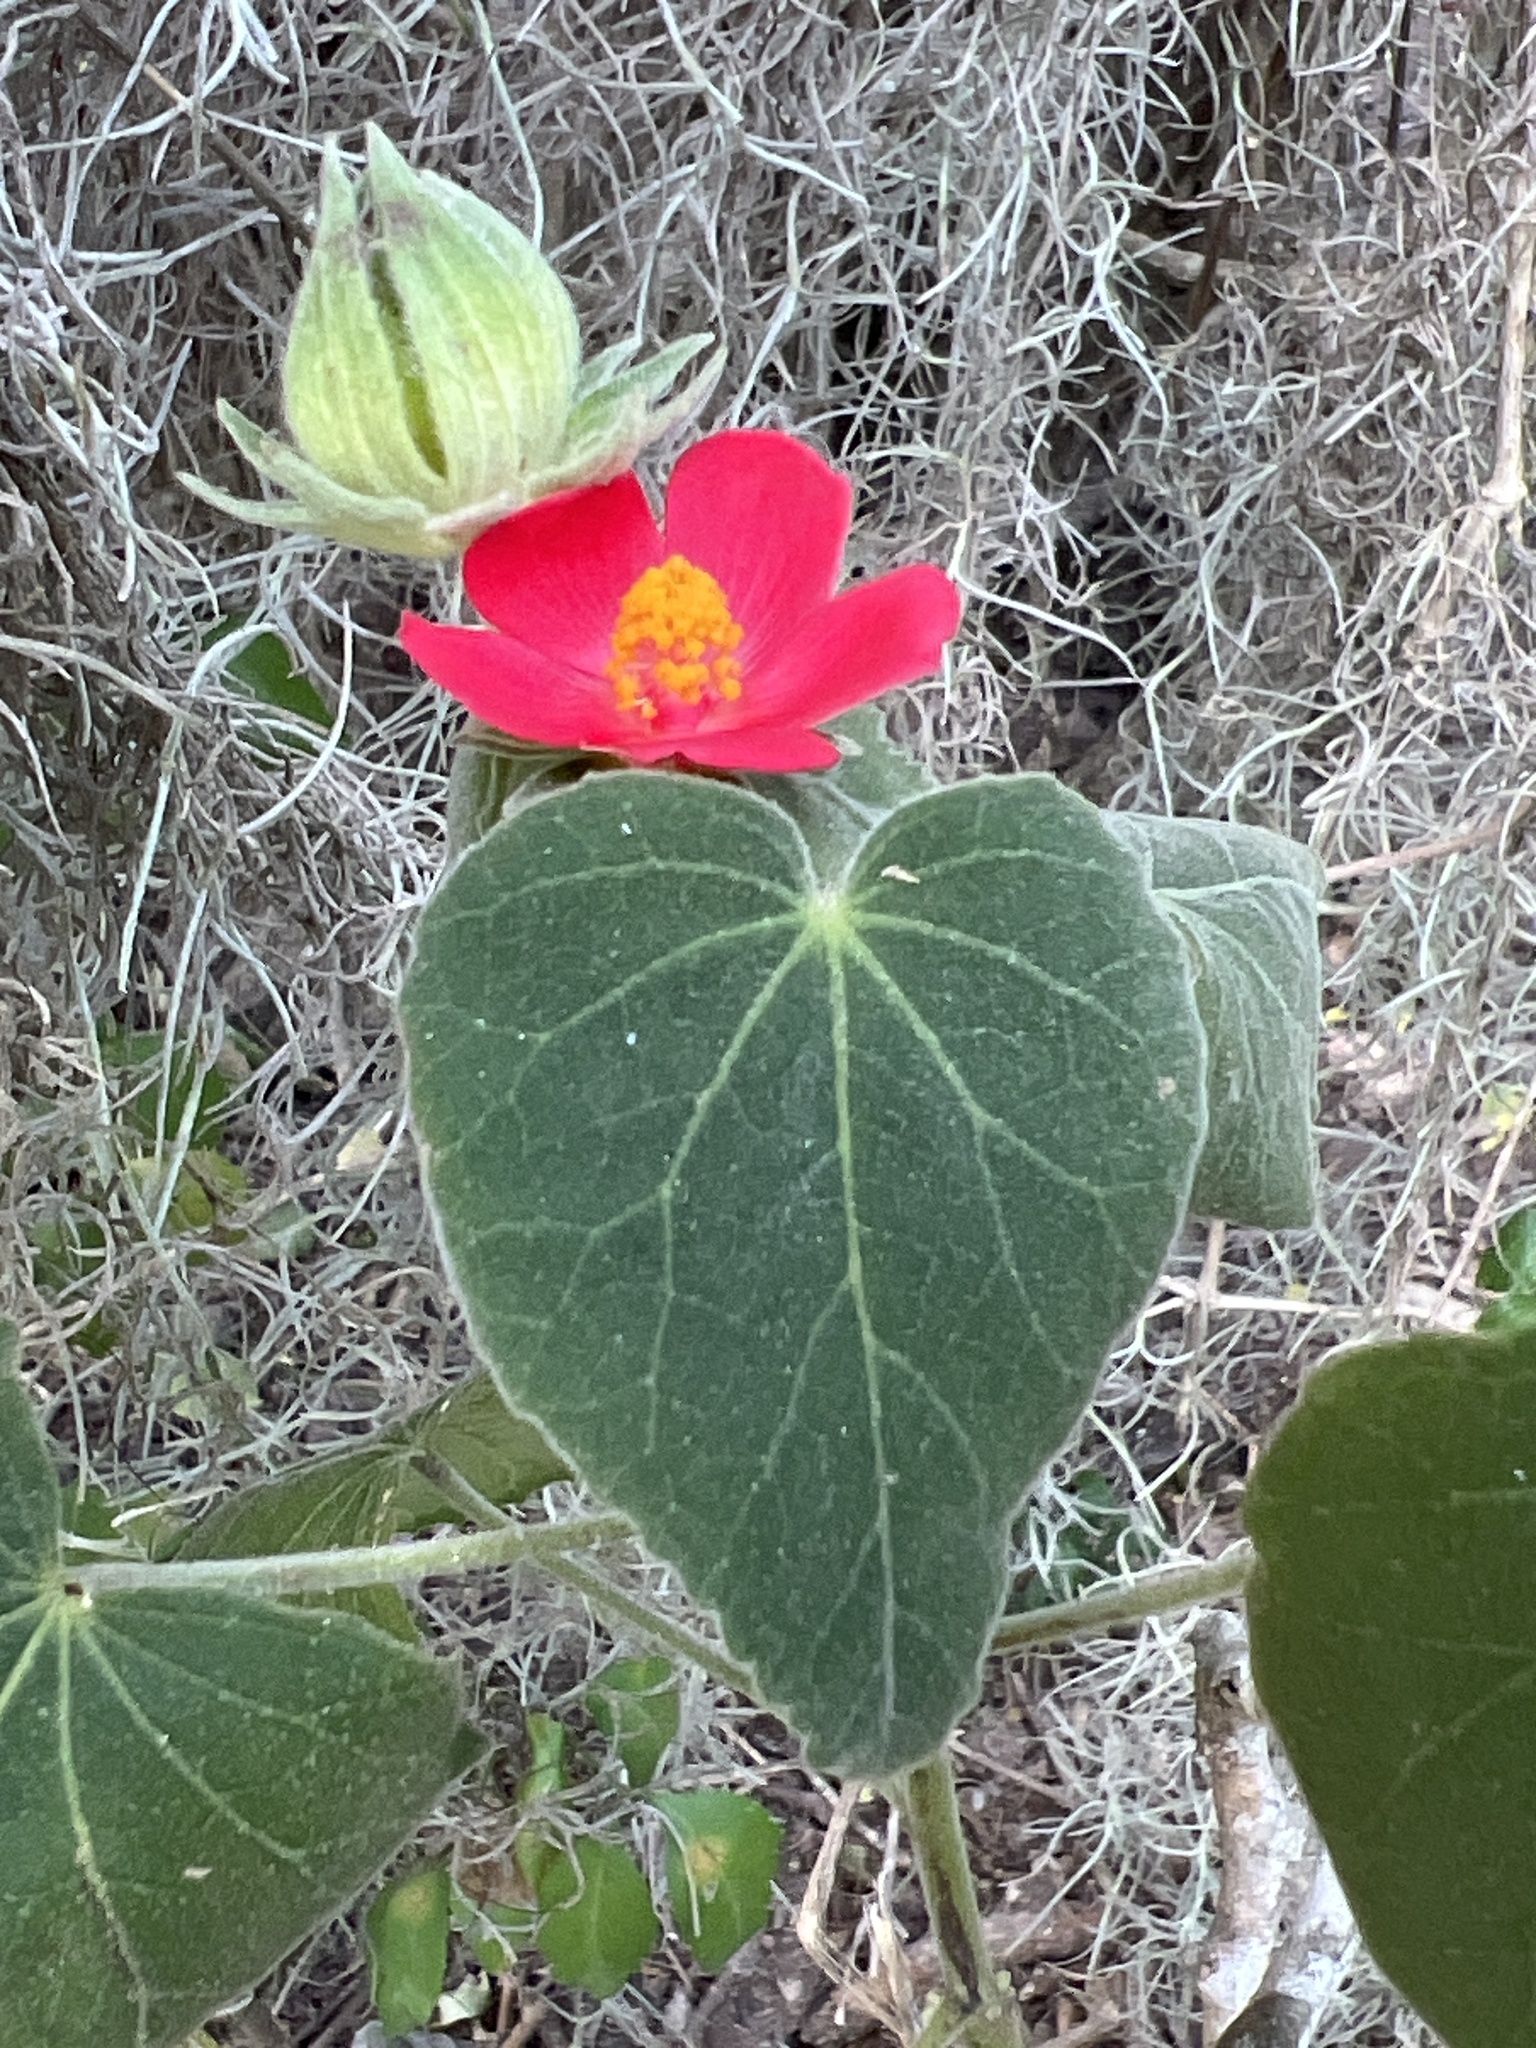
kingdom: Plantae
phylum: Tracheophyta
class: Magnoliopsida
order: Malvales
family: Malvaceae
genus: Hibiscus
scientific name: Hibiscus martianus
